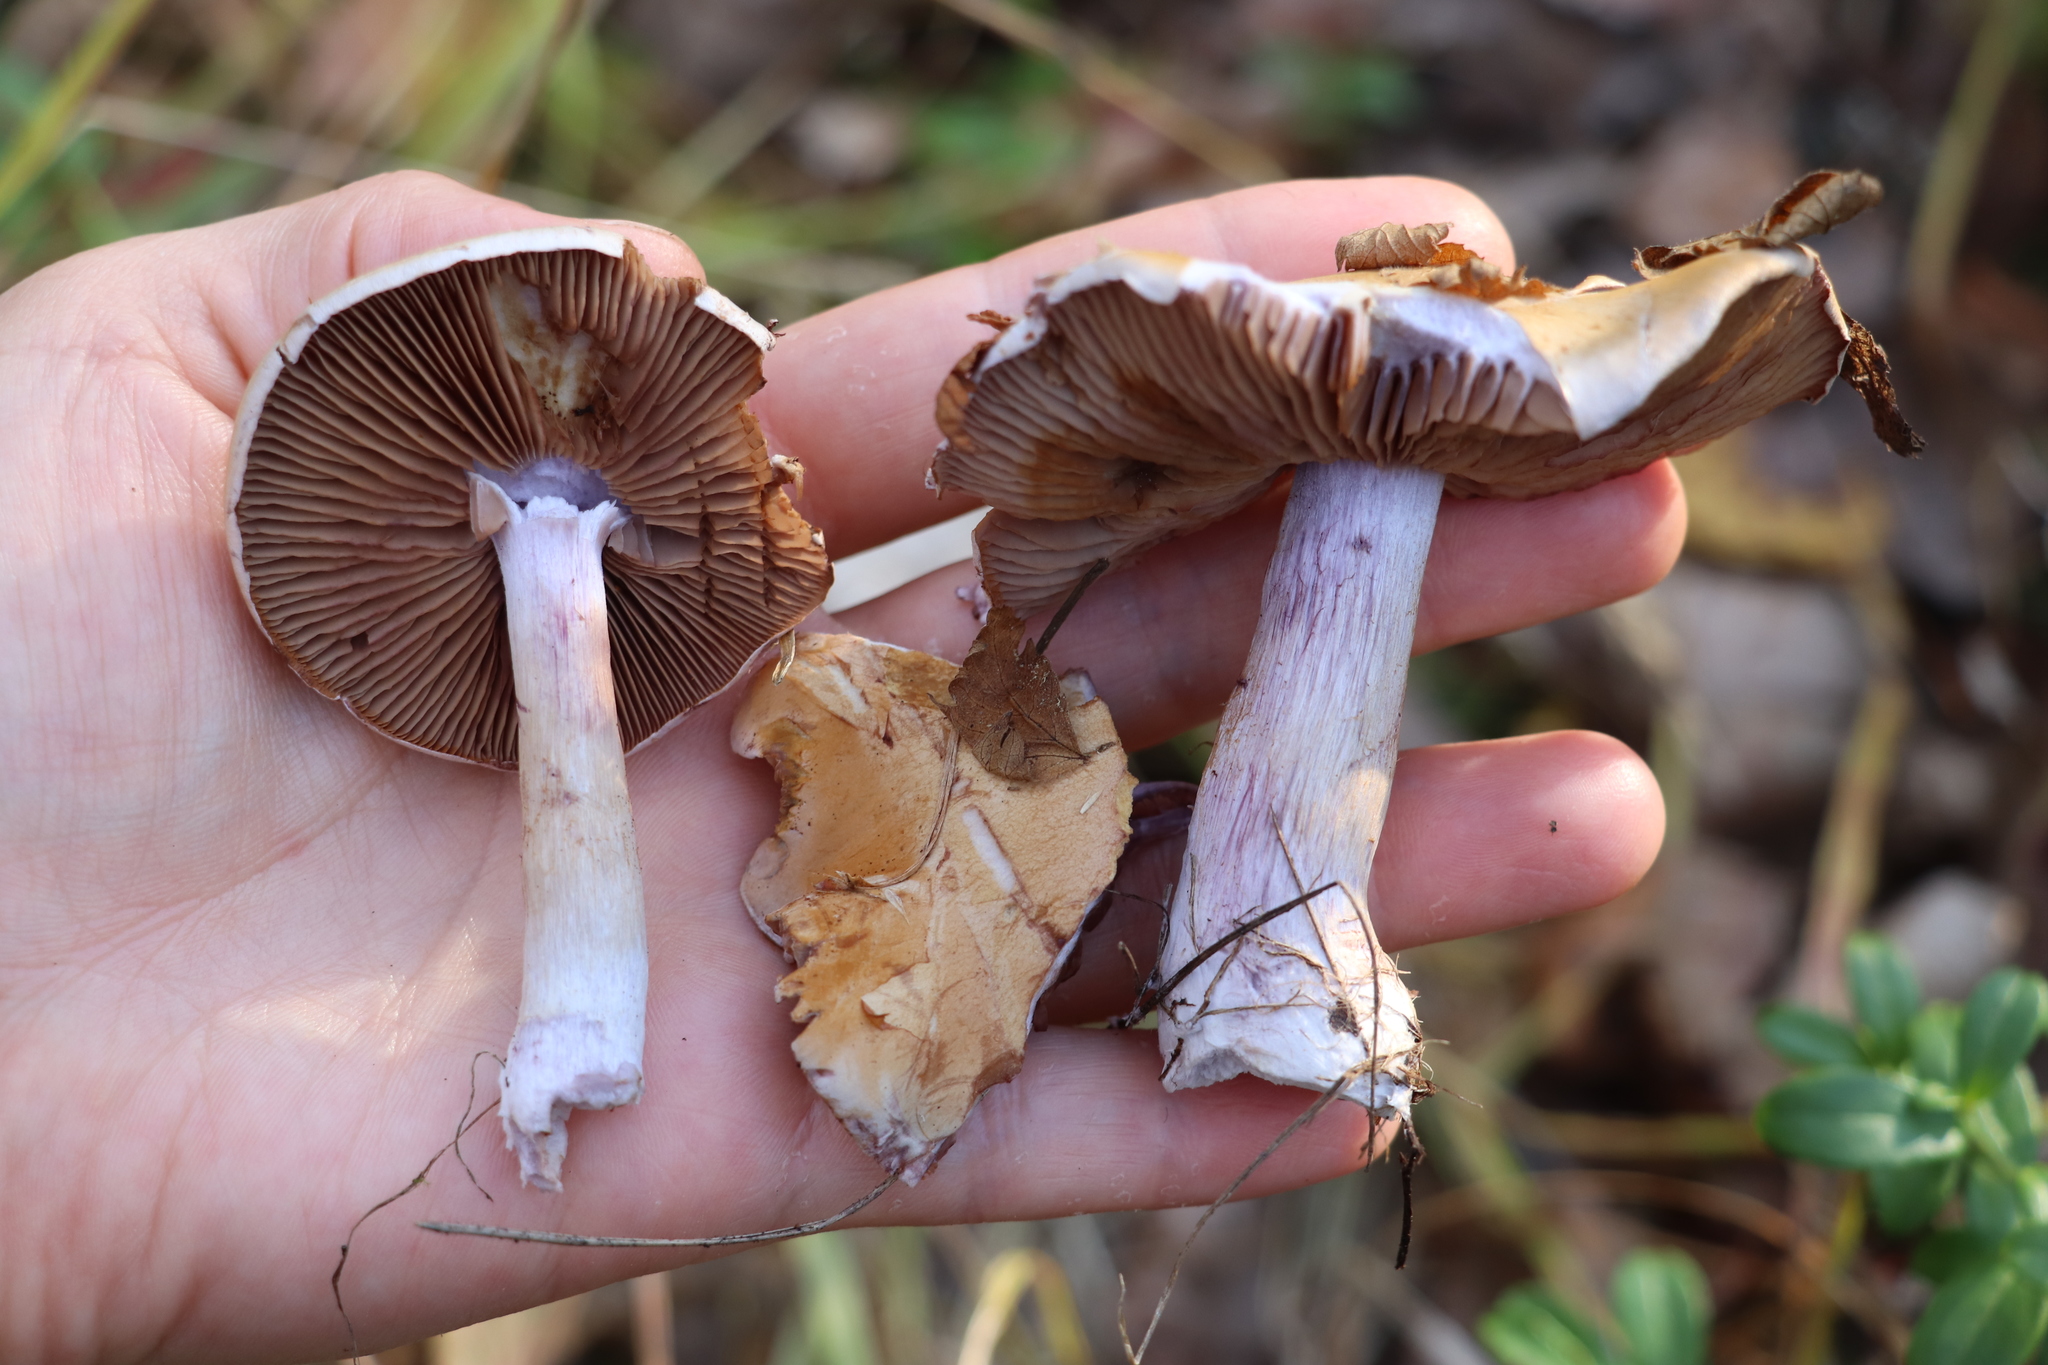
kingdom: Fungi
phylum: Basidiomycota
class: Agaricomycetes
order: Agaricales
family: Cortinariaceae
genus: Thaxterogaster
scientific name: Thaxterogaster porphyropus
